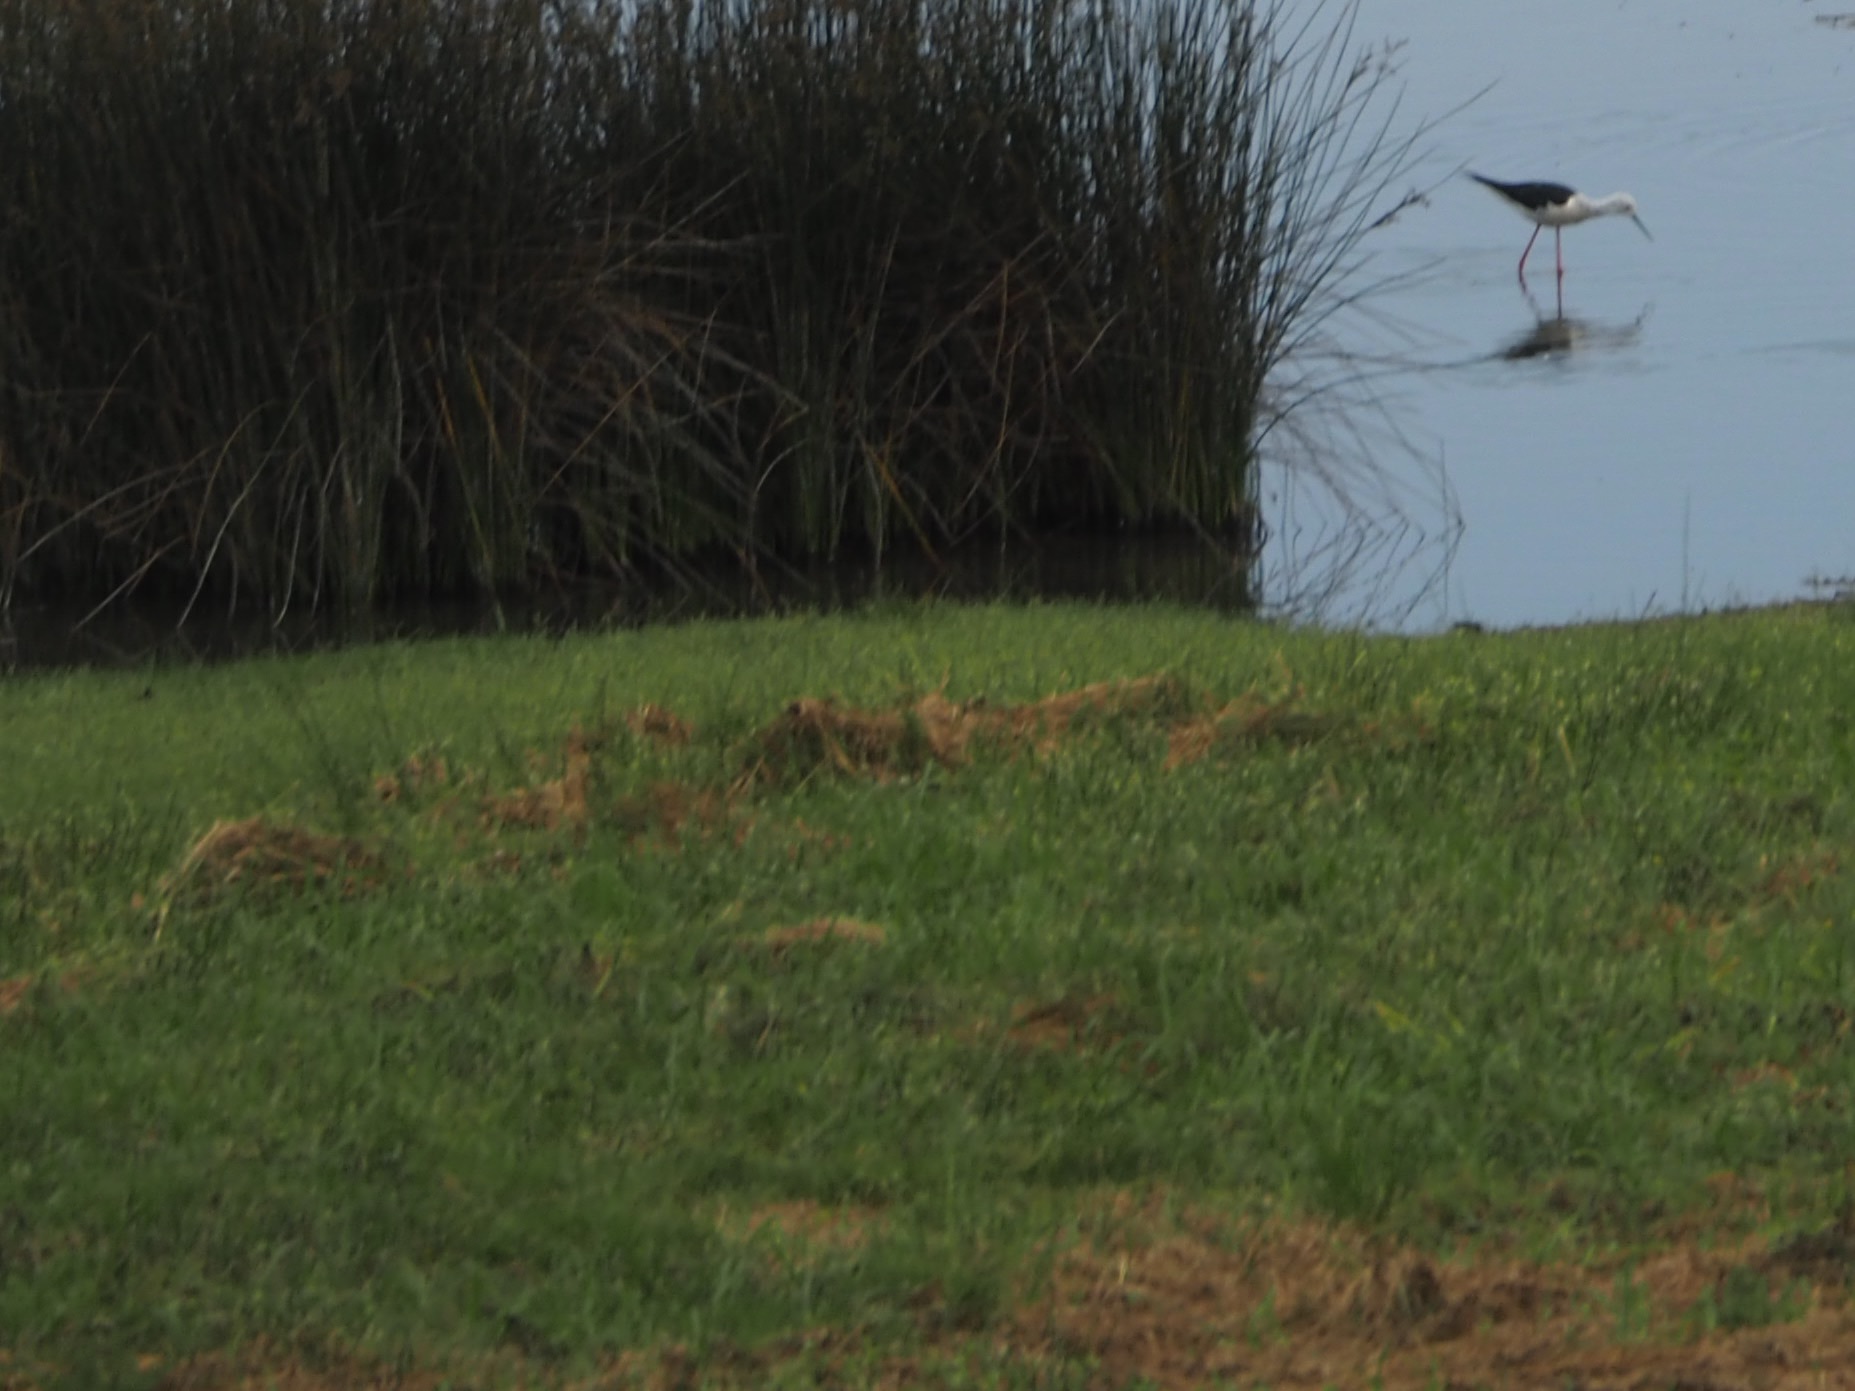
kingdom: Animalia
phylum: Chordata
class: Aves
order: Charadriiformes
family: Recurvirostridae
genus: Himantopus
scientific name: Himantopus himantopus
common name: Black-winged stilt
